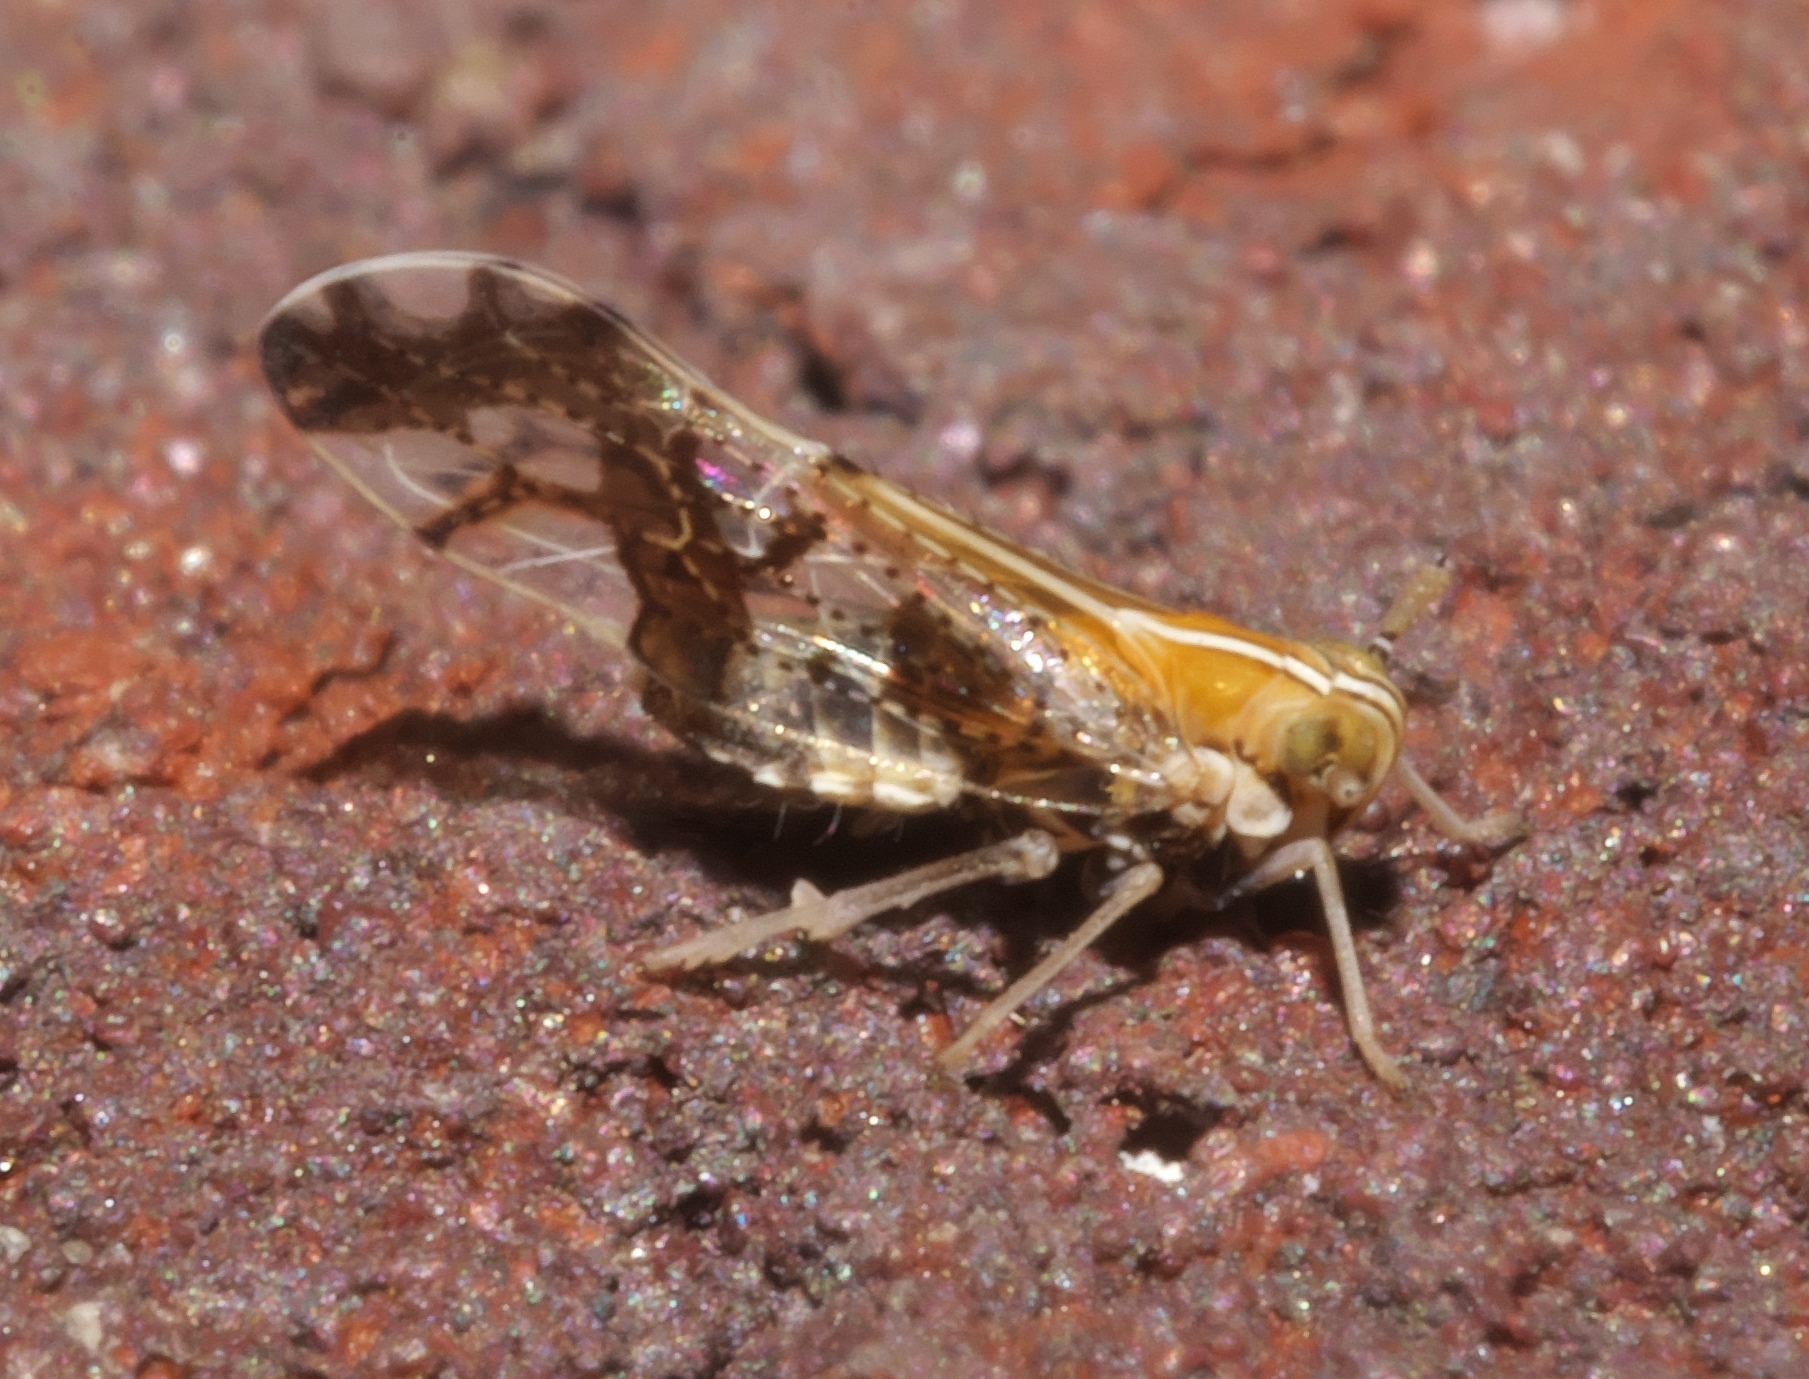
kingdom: Animalia
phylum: Arthropoda
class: Insecta
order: Hemiptera
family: Delphacidae
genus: Liburniella
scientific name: Liburniella ornata
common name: Ornate planthopper
